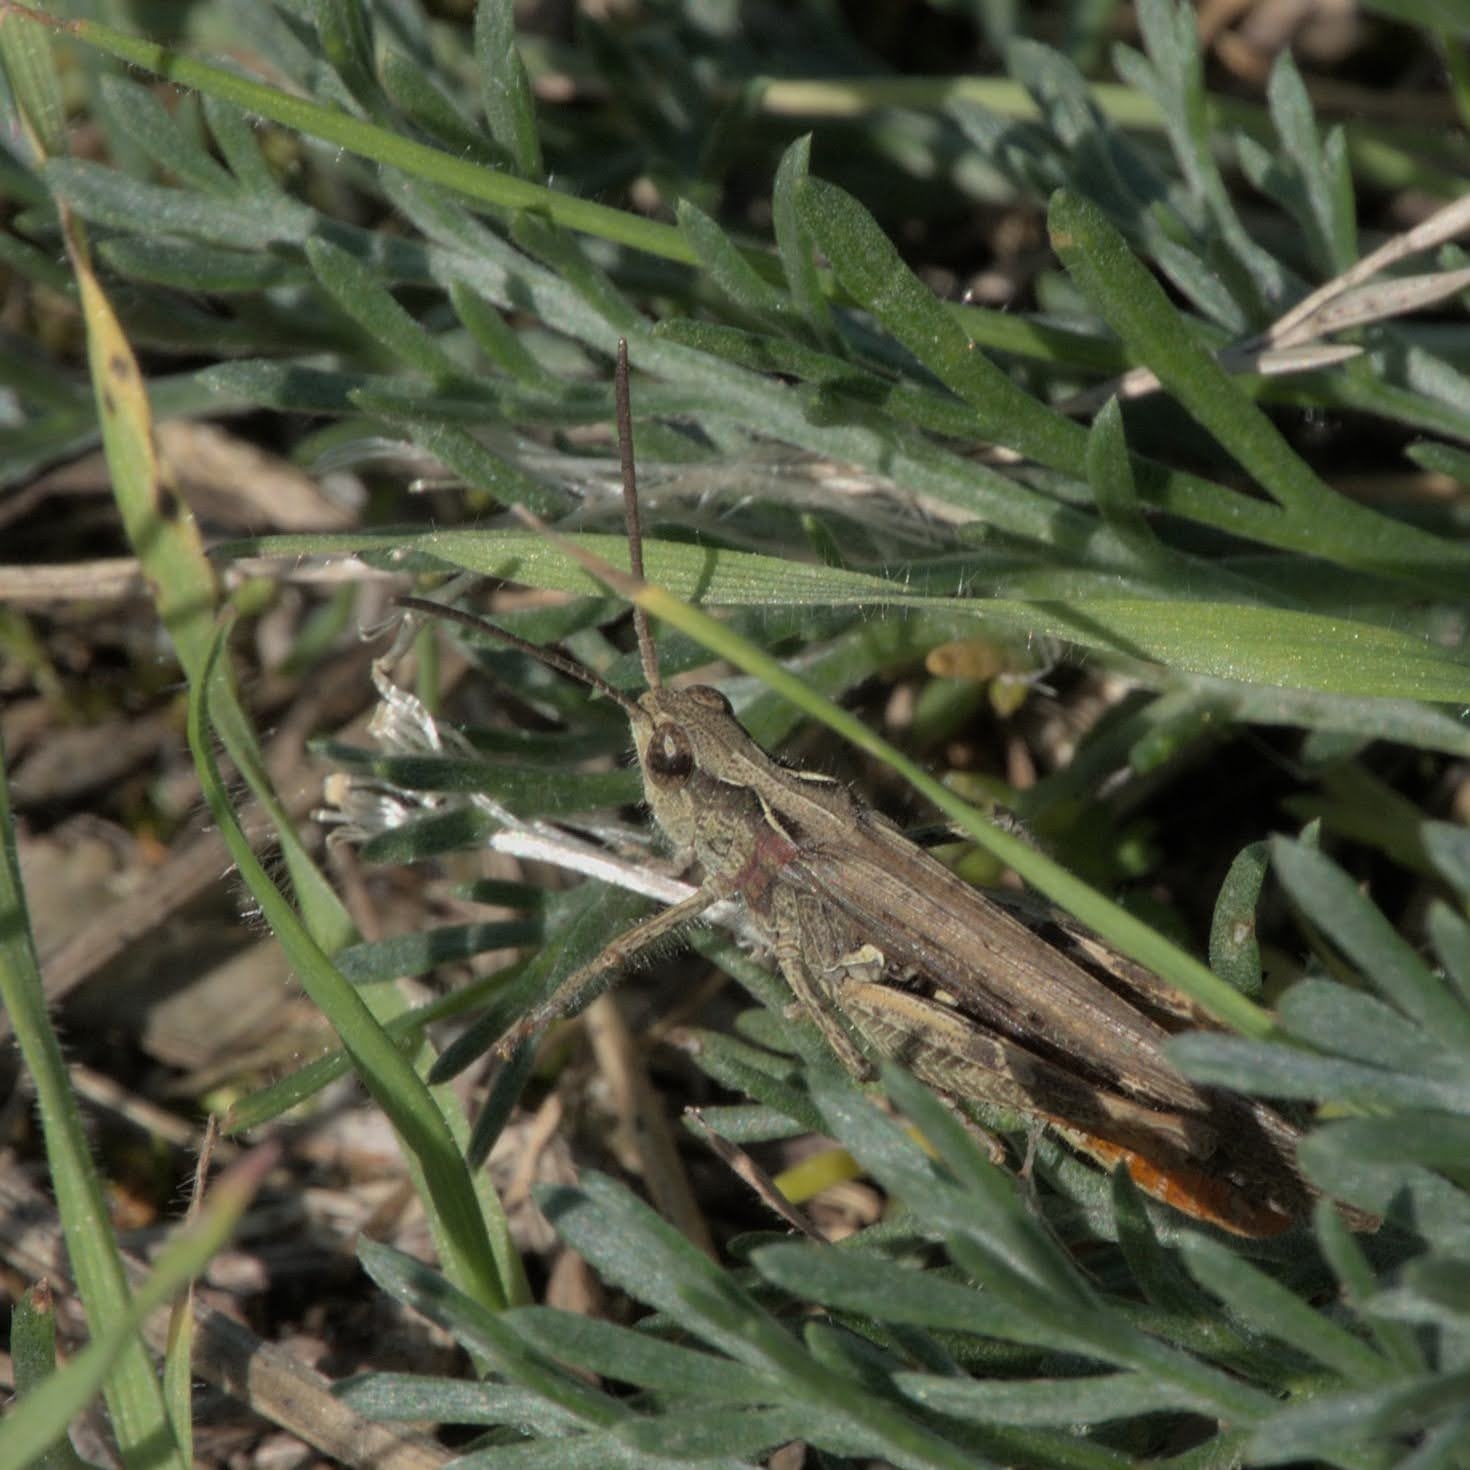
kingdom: Animalia
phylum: Arthropoda
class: Insecta
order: Orthoptera
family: Acrididae
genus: Chorthippus
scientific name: Chorthippus brunneus
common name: Field grasshopper
